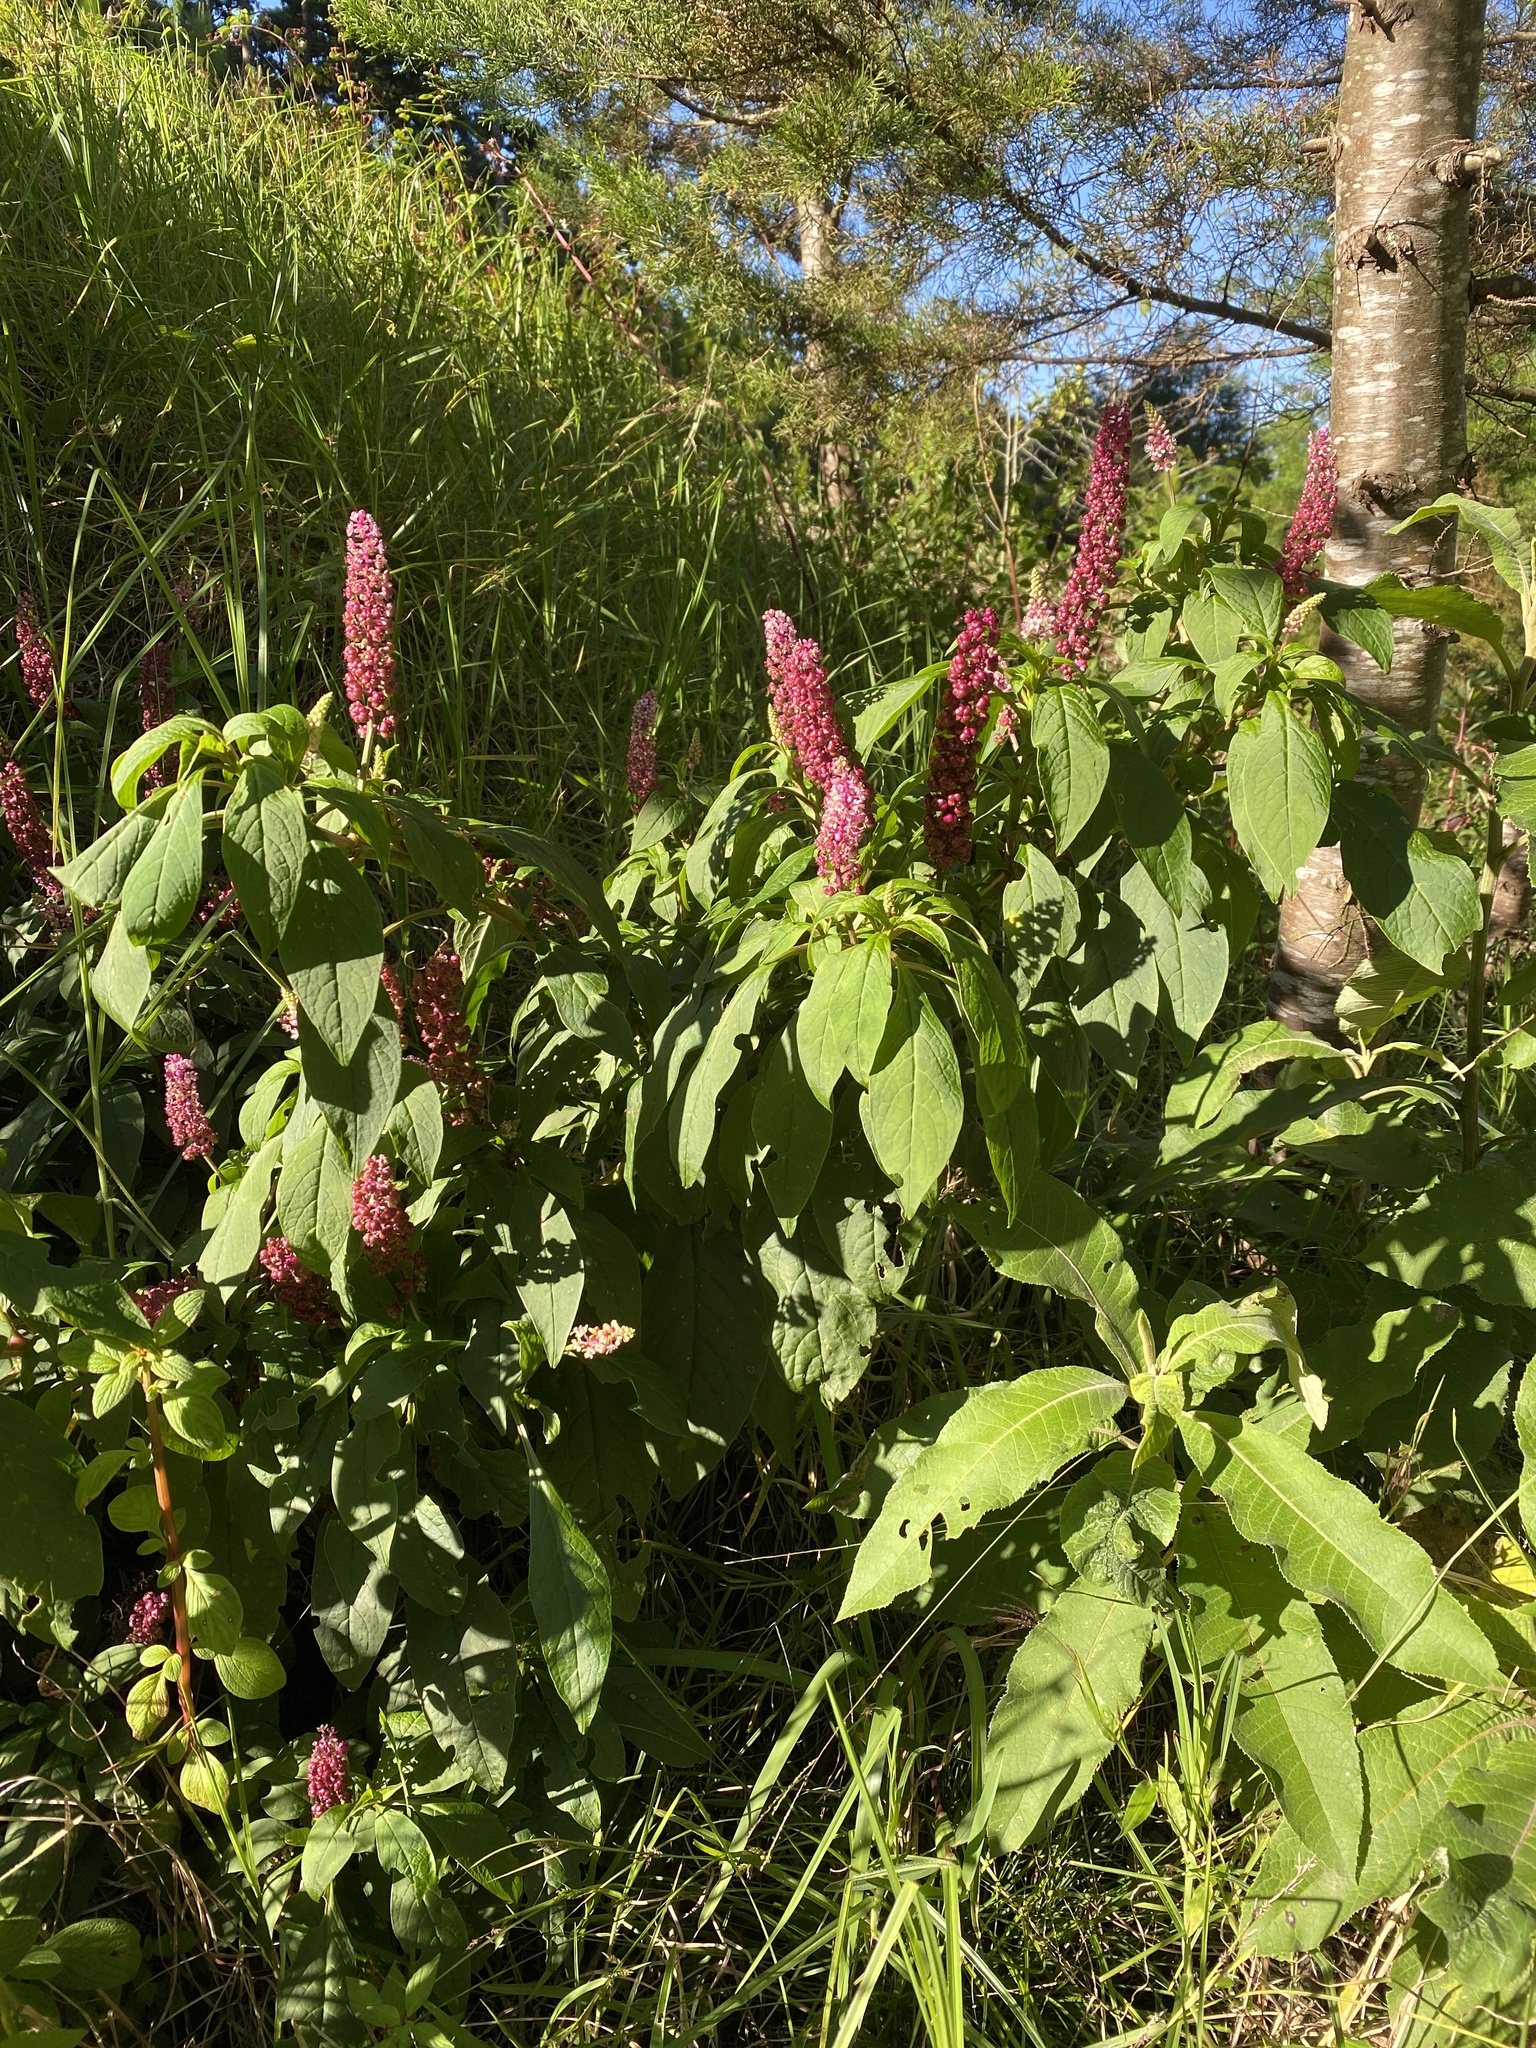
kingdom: Plantae
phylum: Tracheophyta
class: Magnoliopsida
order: Caryophyllales
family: Phytolaccaceae
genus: Phytolacca
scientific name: Phytolacca rugosa
